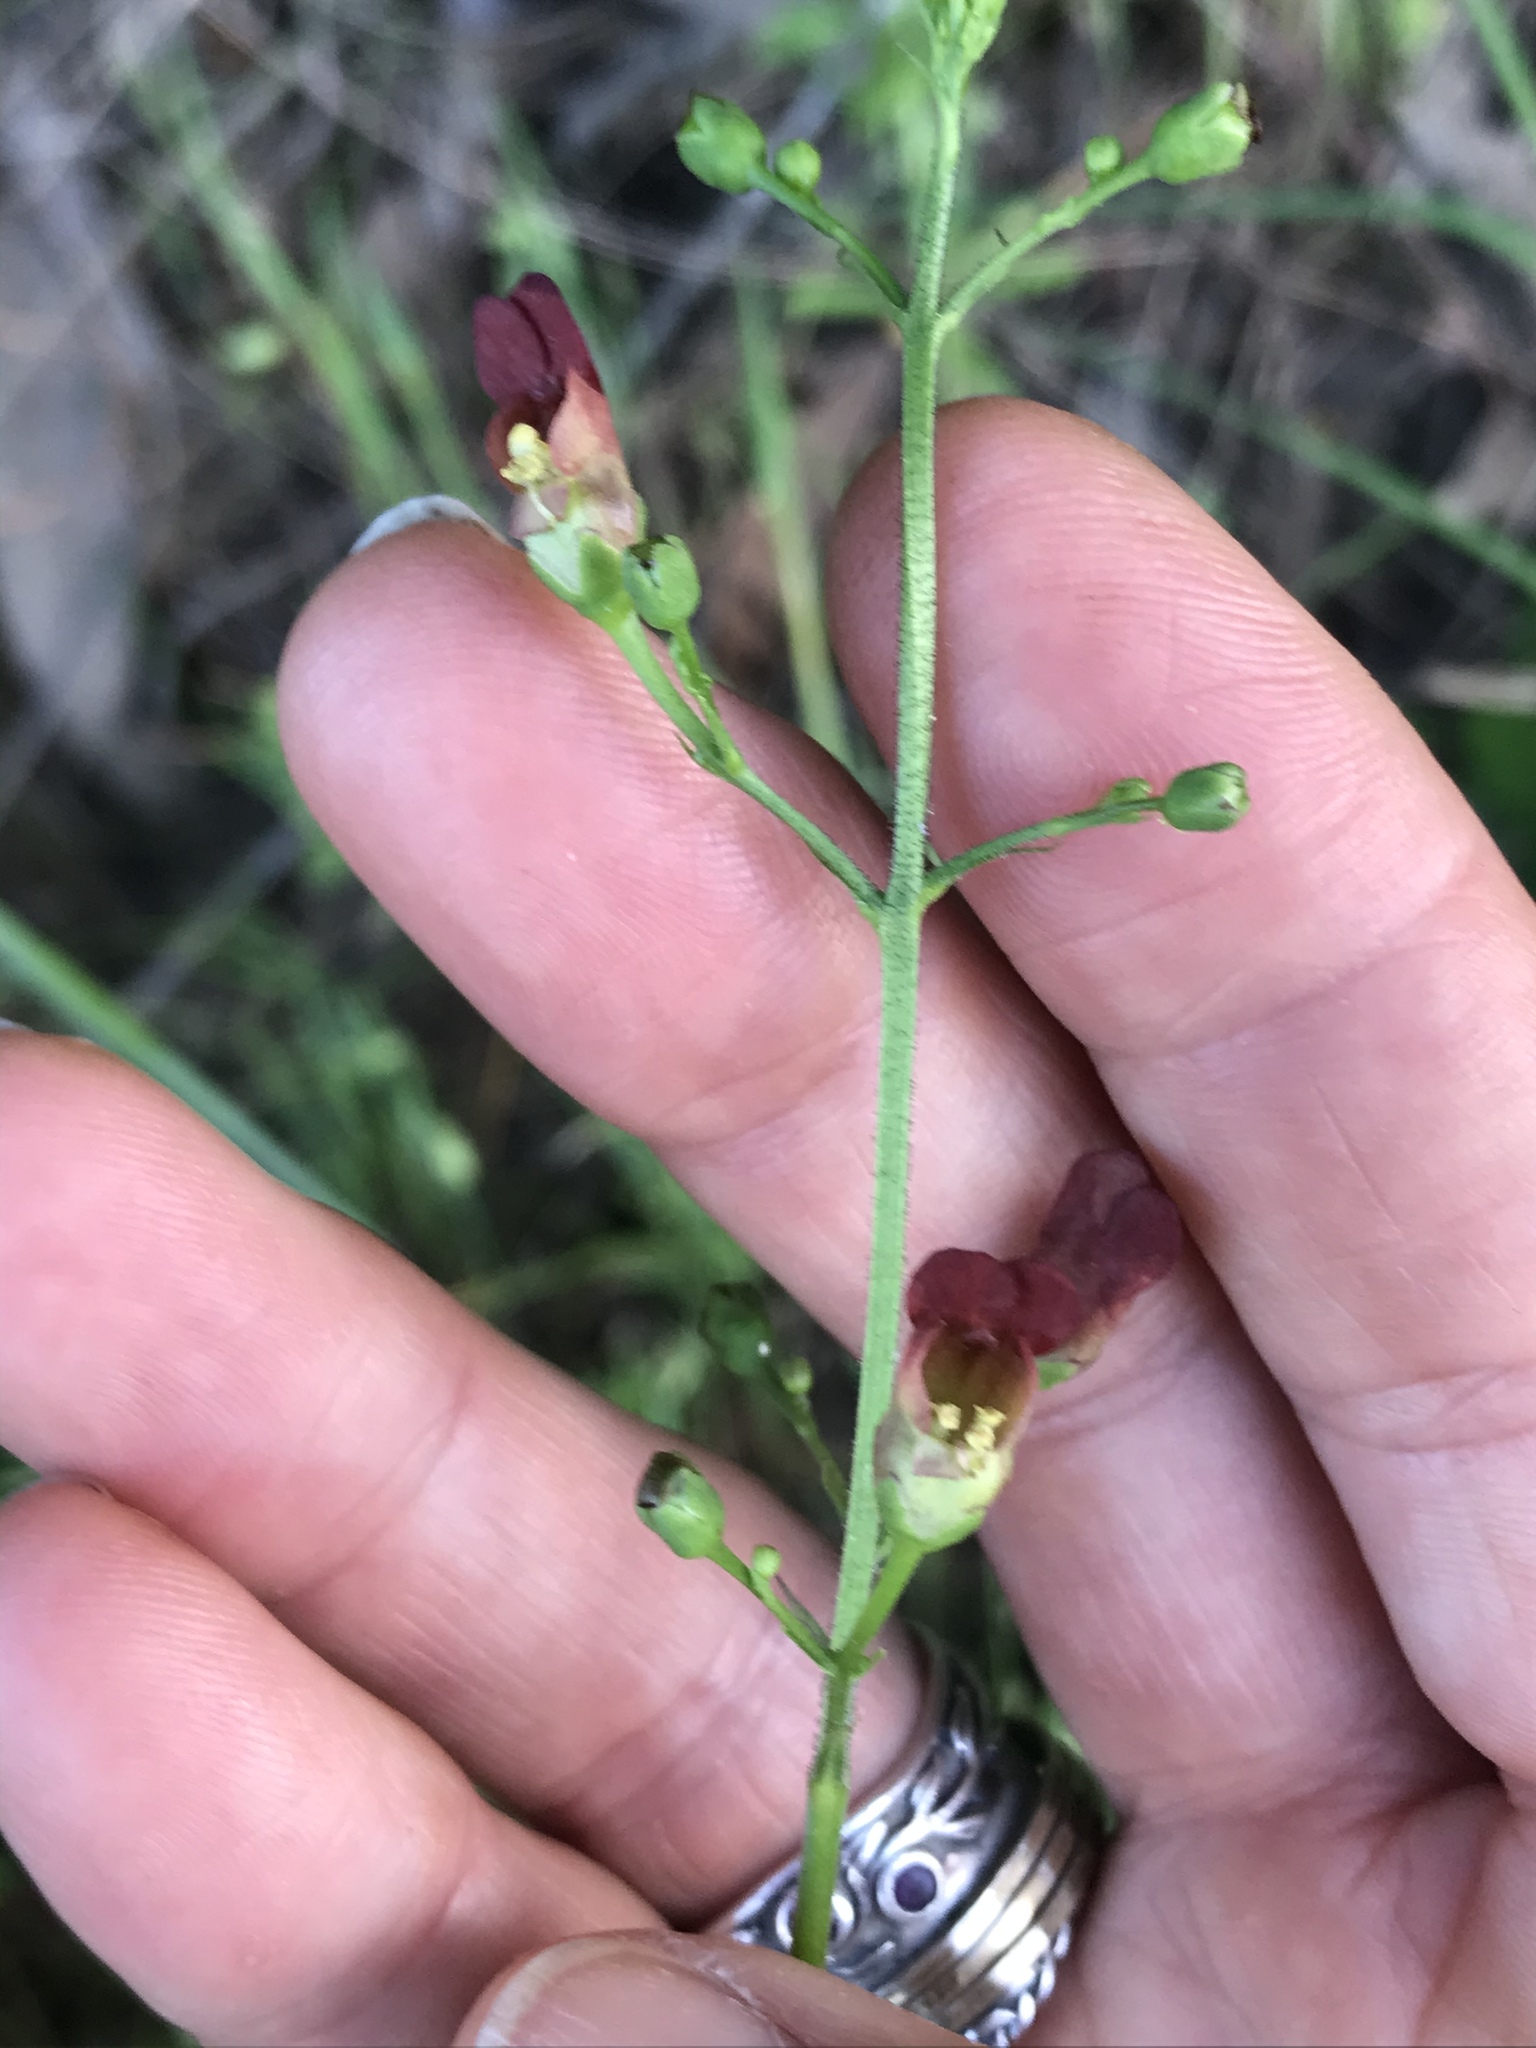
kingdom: Plantae
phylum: Tracheophyta
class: Magnoliopsida
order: Lamiales
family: Scrophulariaceae
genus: Scrophularia
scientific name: Scrophularia californica
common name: California figwort
